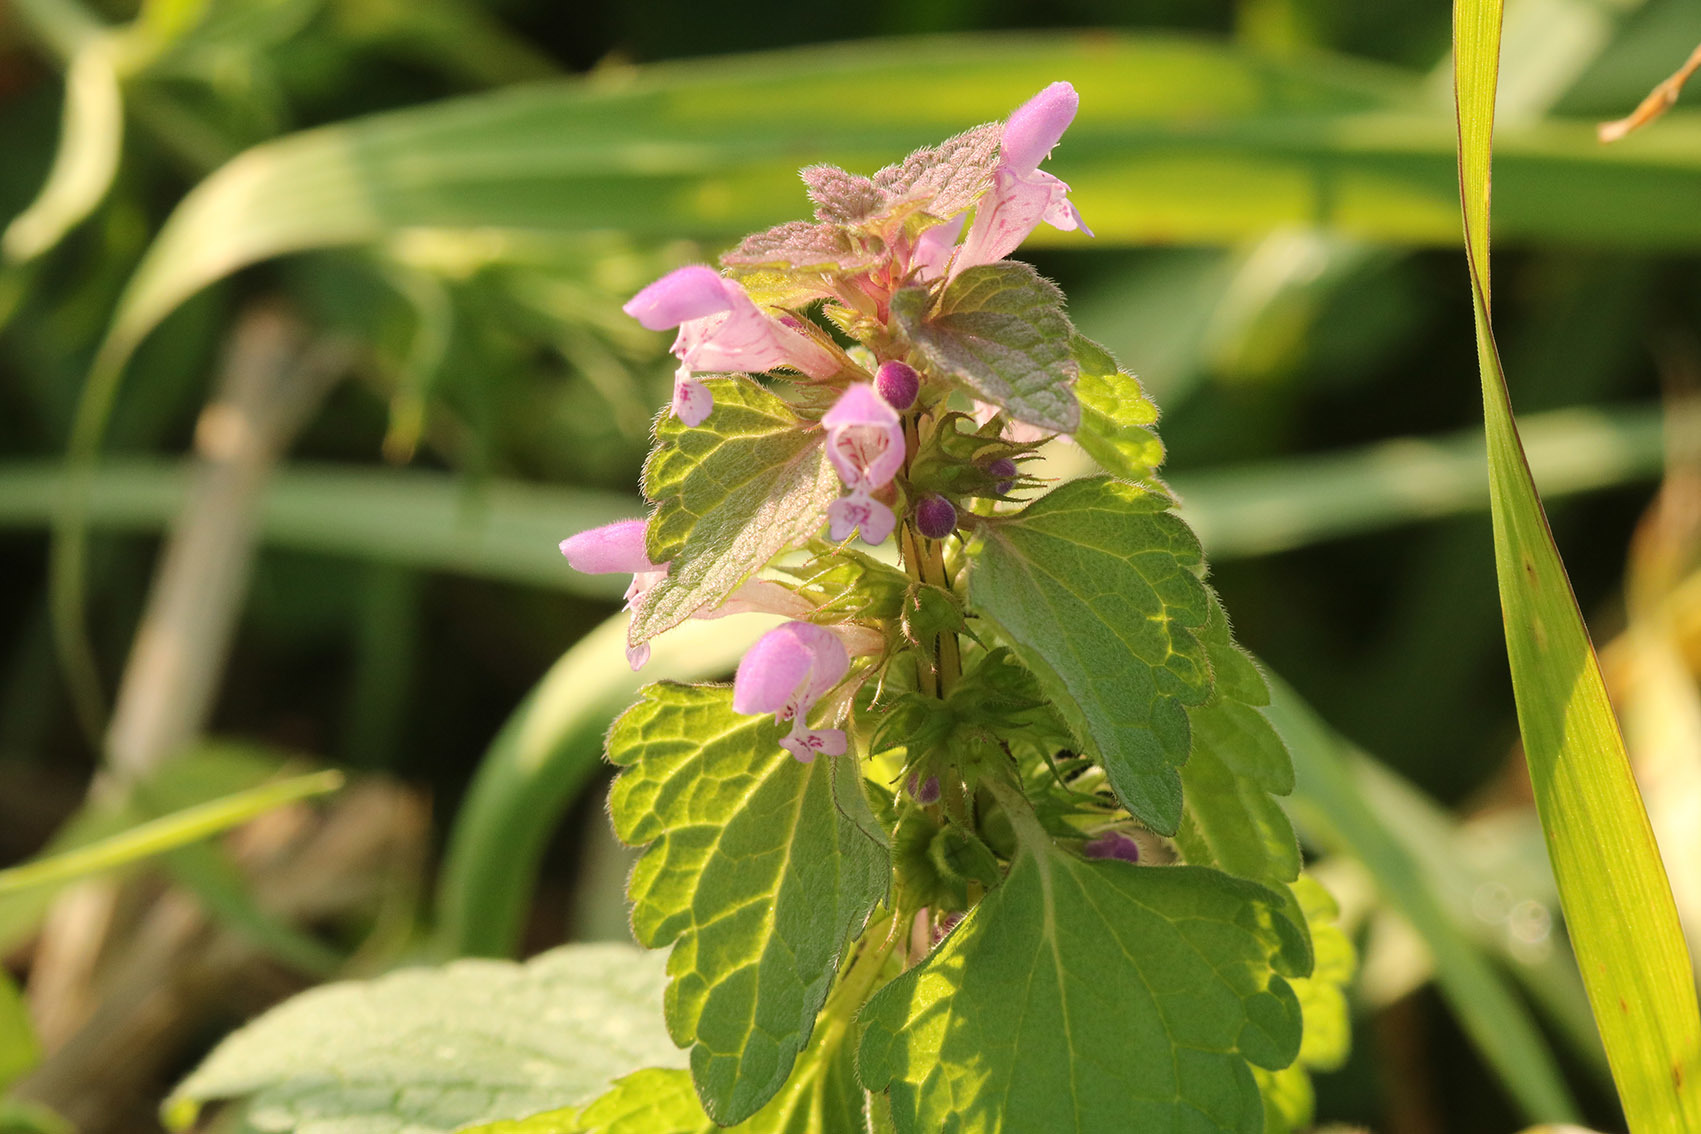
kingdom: Plantae
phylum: Tracheophyta
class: Magnoliopsida
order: Lamiales
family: Lamiaceae
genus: Lamium
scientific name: Lamium purpureum
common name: Red dead-nettle
